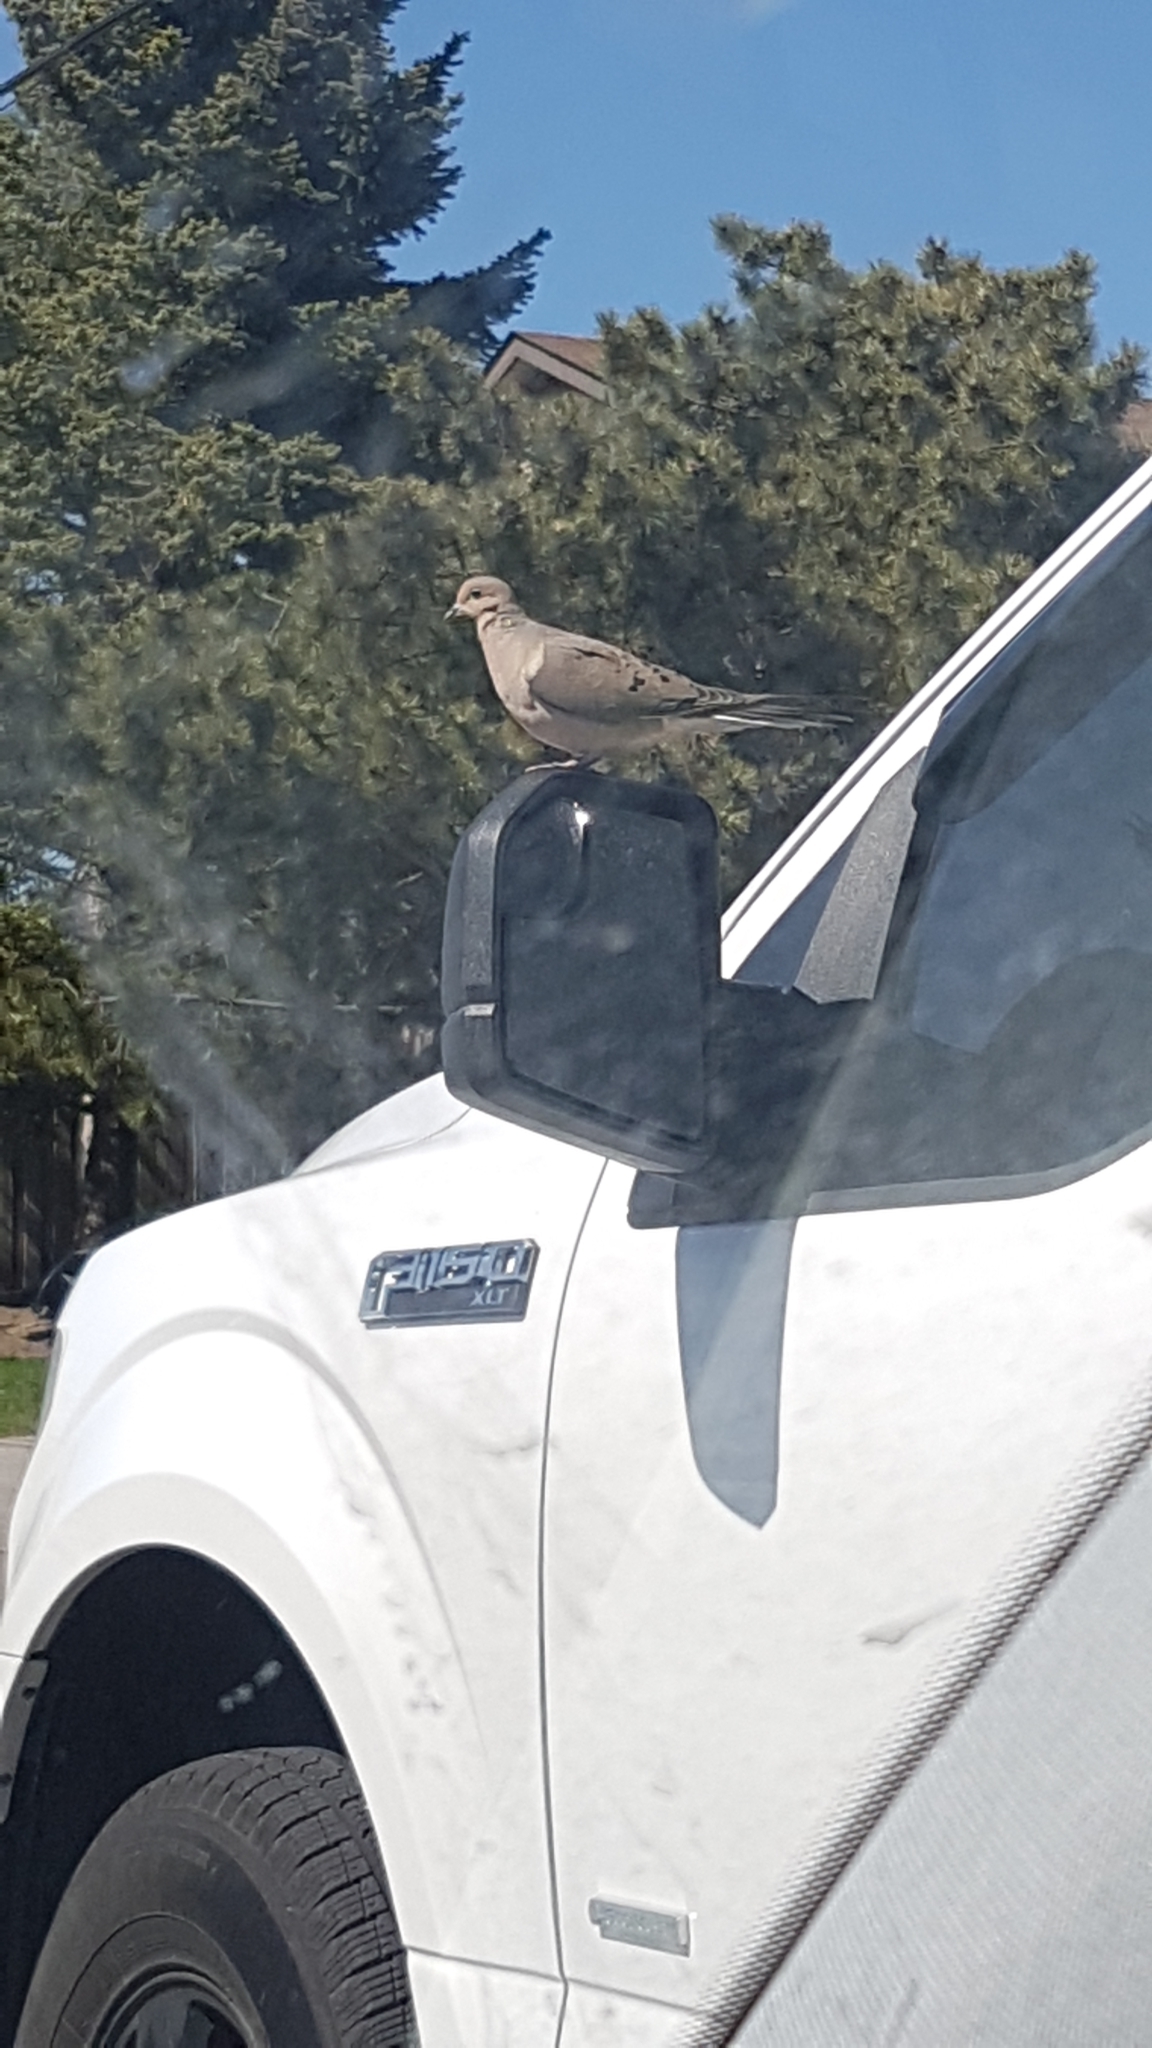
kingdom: Animalia
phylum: Chordata
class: Aves
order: Columbiformes
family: Columbidae
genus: Zenaida
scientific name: Zenaida macroura
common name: Mourning dove
